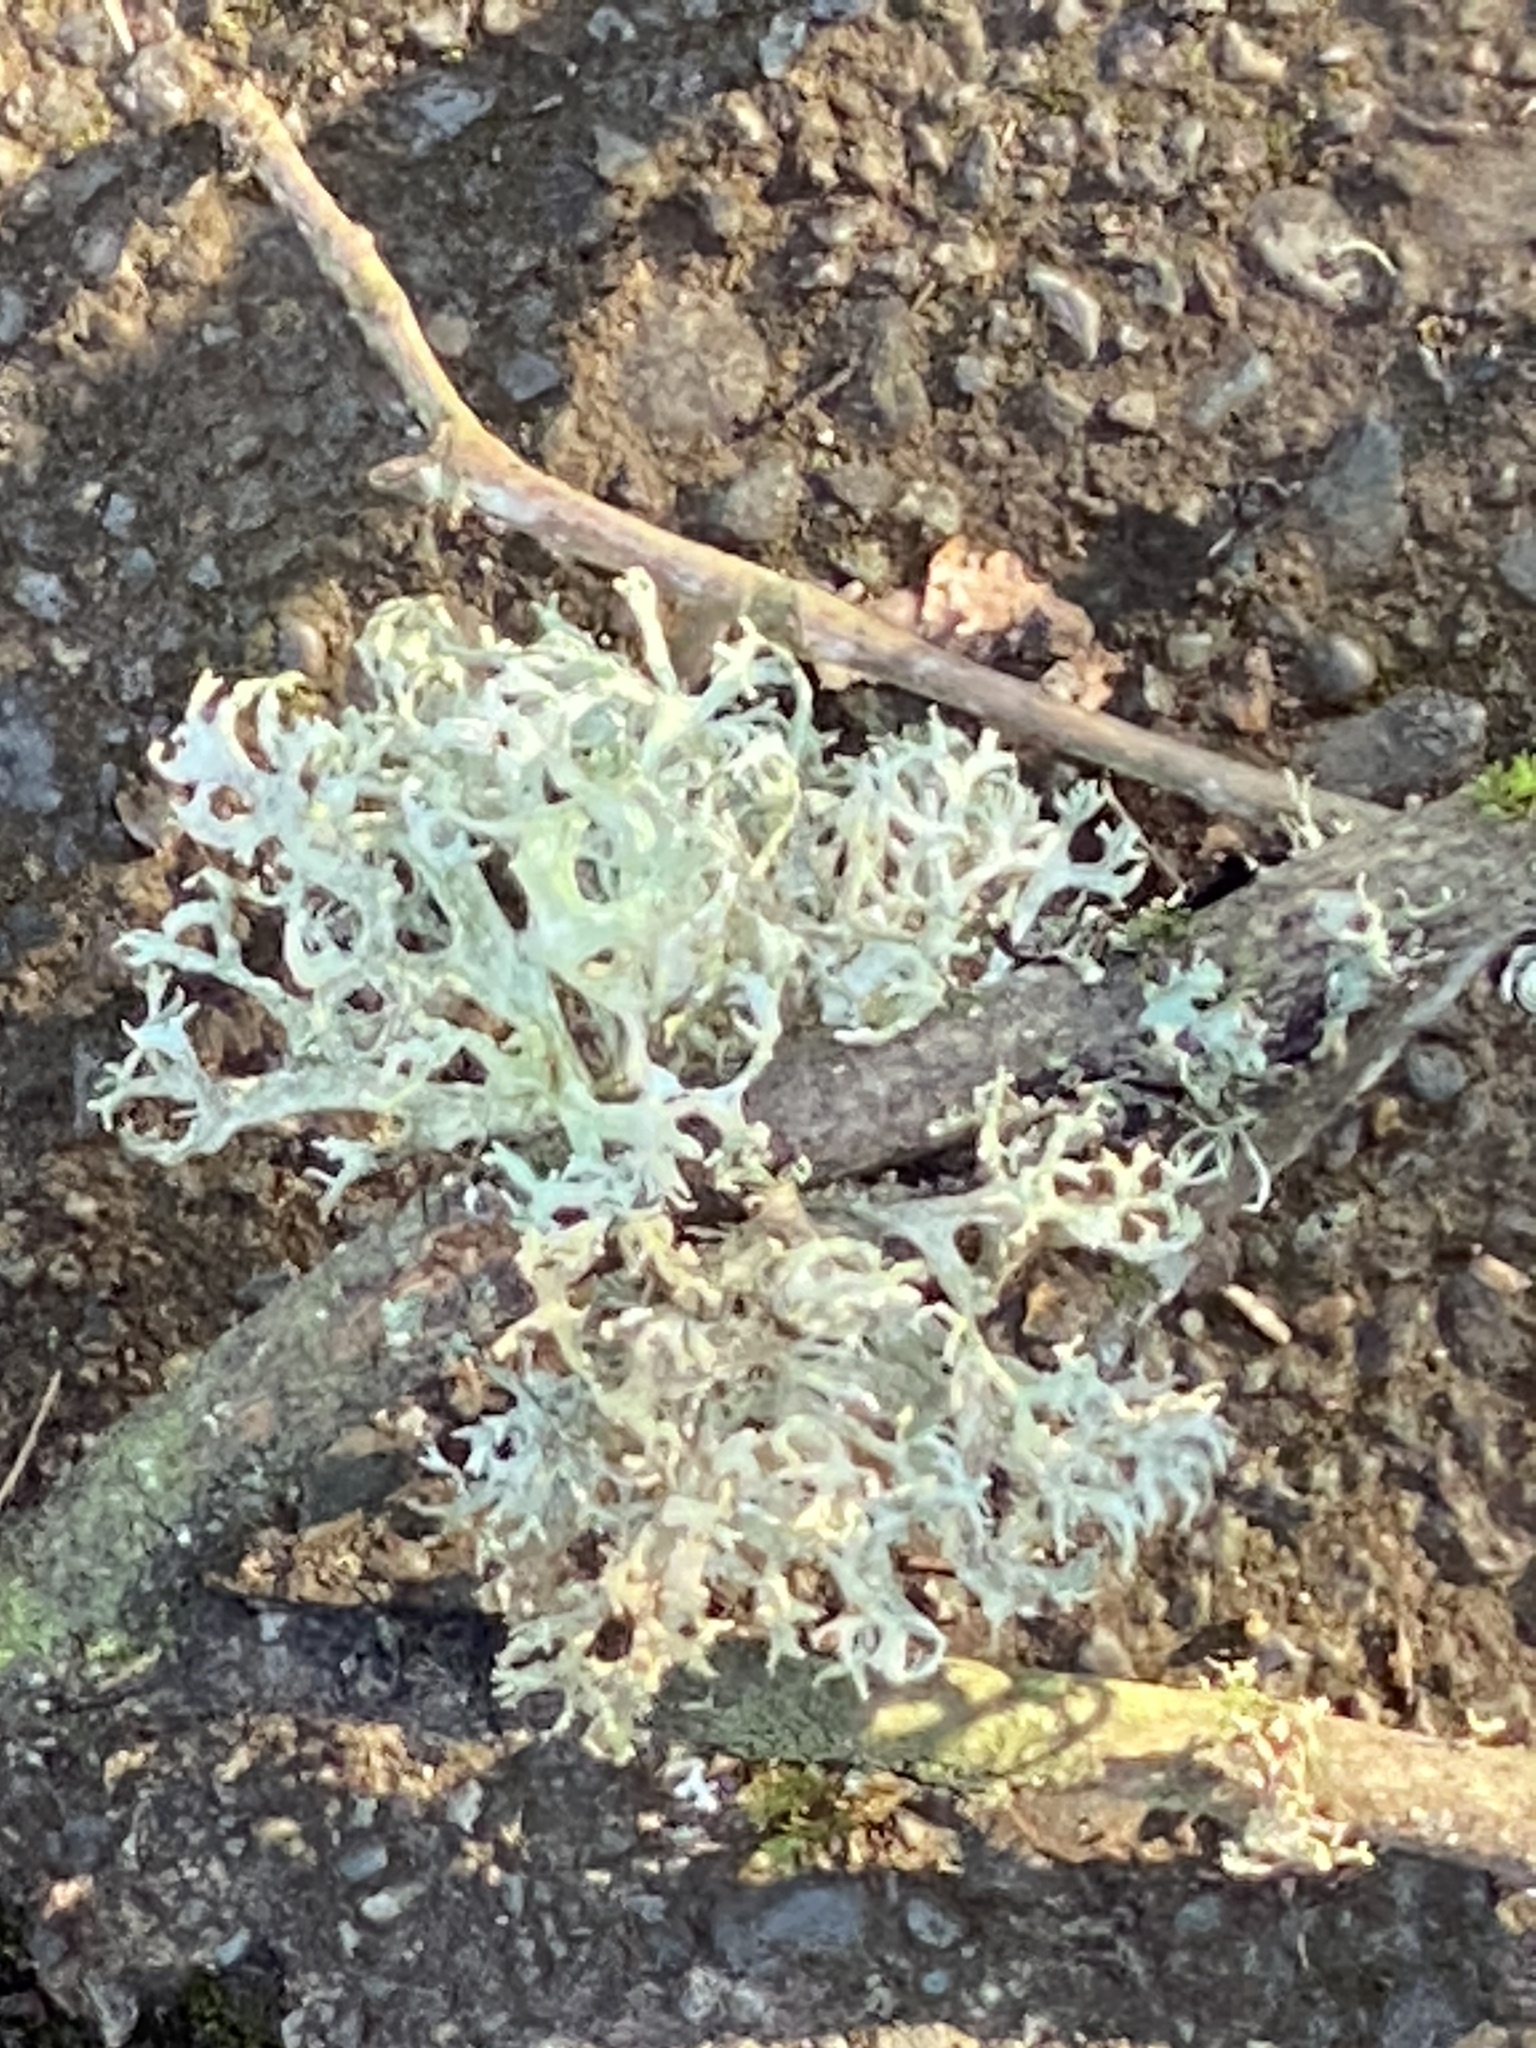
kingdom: Fungi
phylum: Ascomycota
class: Lecanoromycetes
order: Lecanorales
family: Parmeliaceae
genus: Evernia
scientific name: Evernia prunastri
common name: Oak moss
